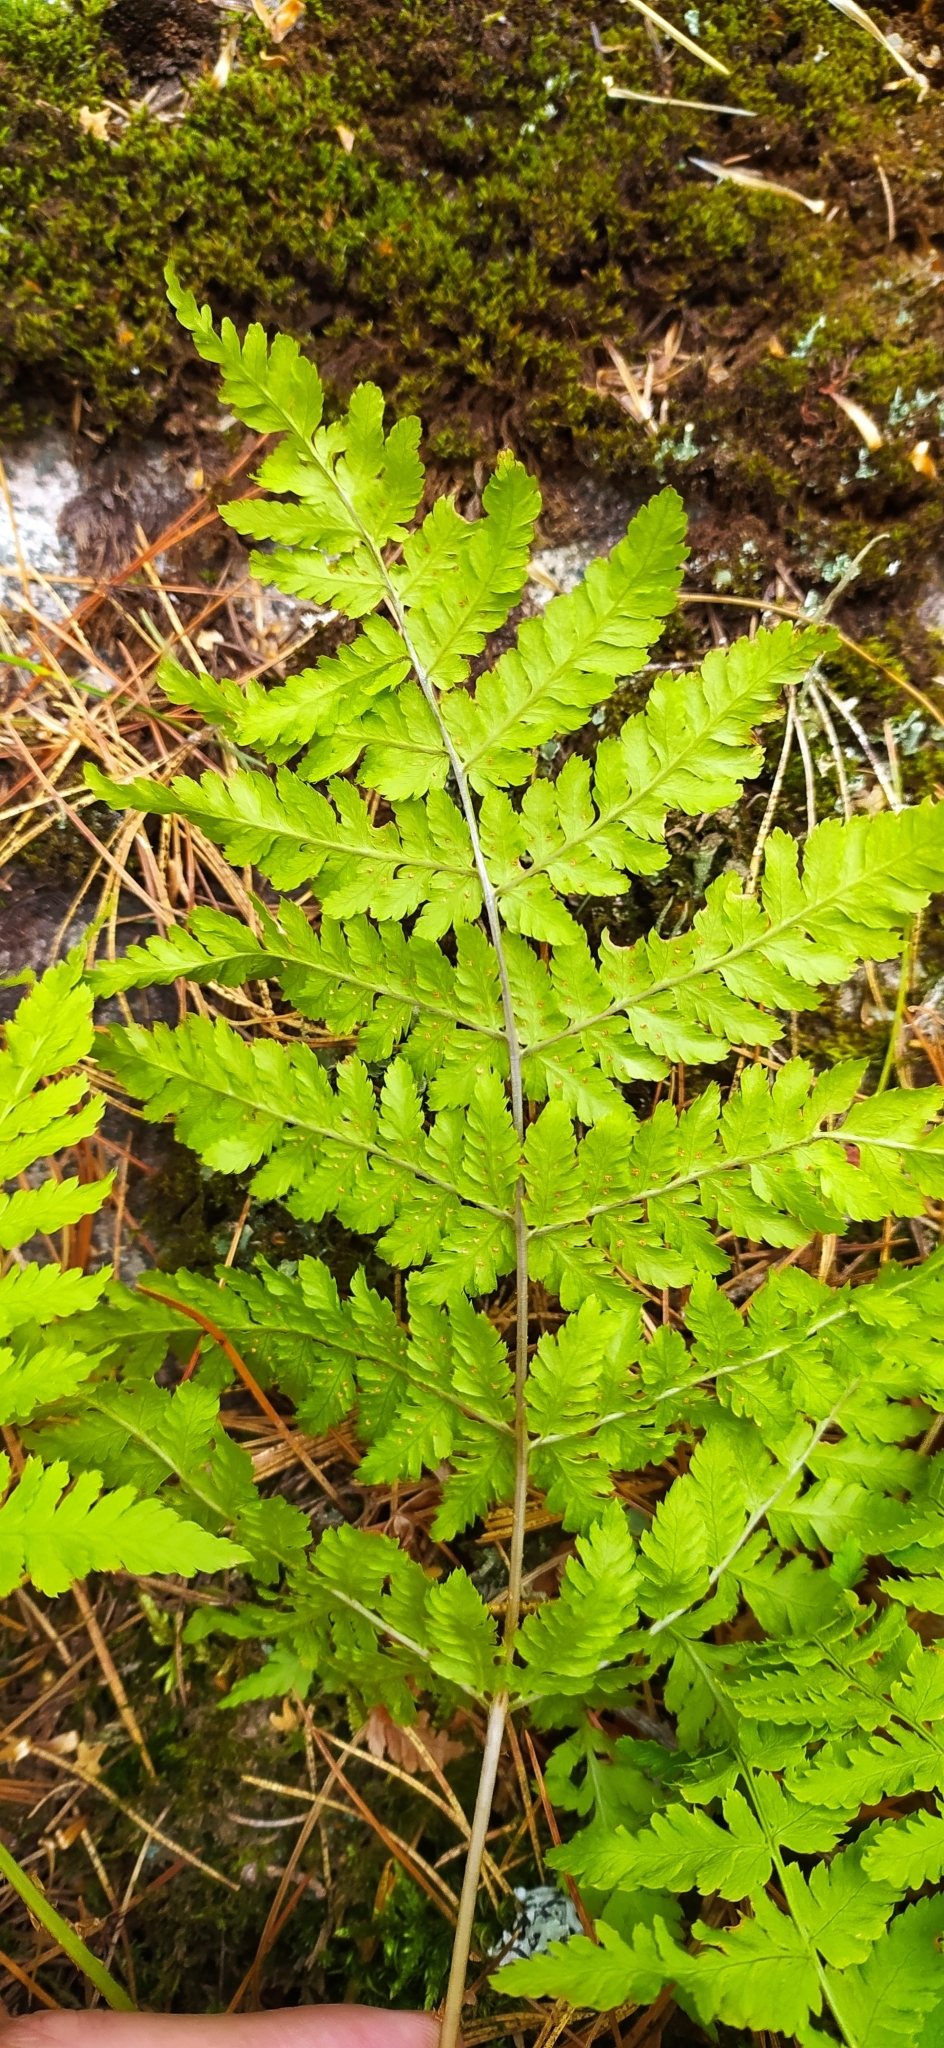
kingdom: Plantae
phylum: Tracheophyta
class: Polypodiopsida
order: Polypodiales
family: Dryopteridaceae
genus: Dryopteris
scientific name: Dryopteris carthusiana
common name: Narrow buckler-fern
